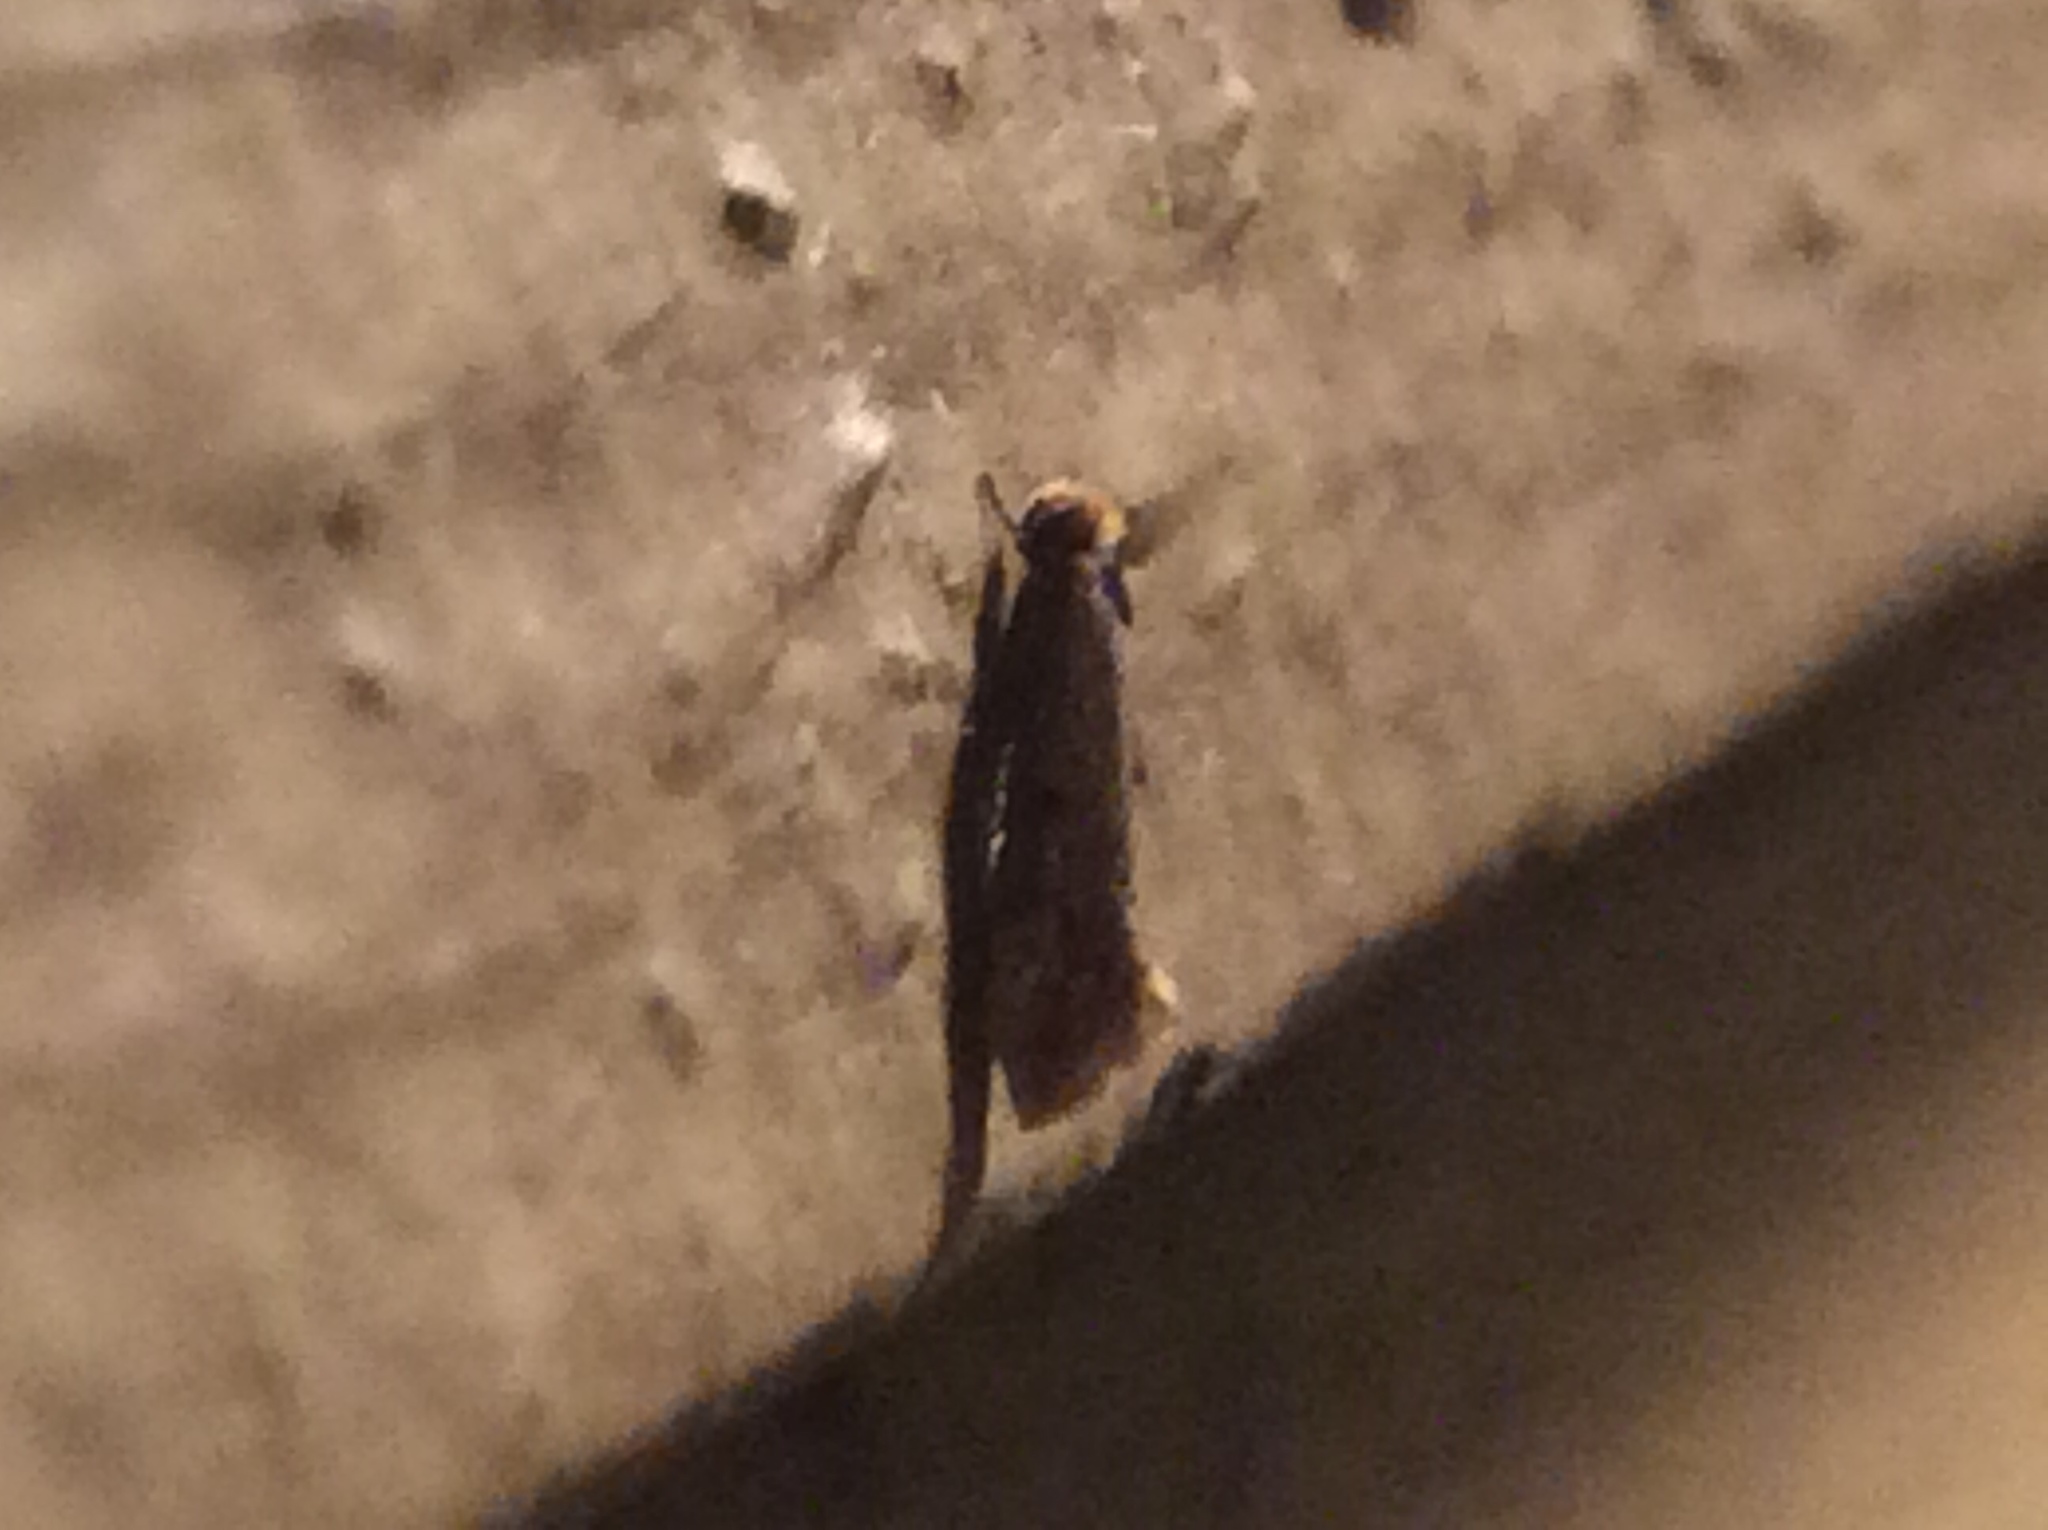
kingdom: Animalia
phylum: Arthropoda
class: Insecta
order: Lepidoptera
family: Meessiidae
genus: Homostinea
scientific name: Homostinea curviliniella
